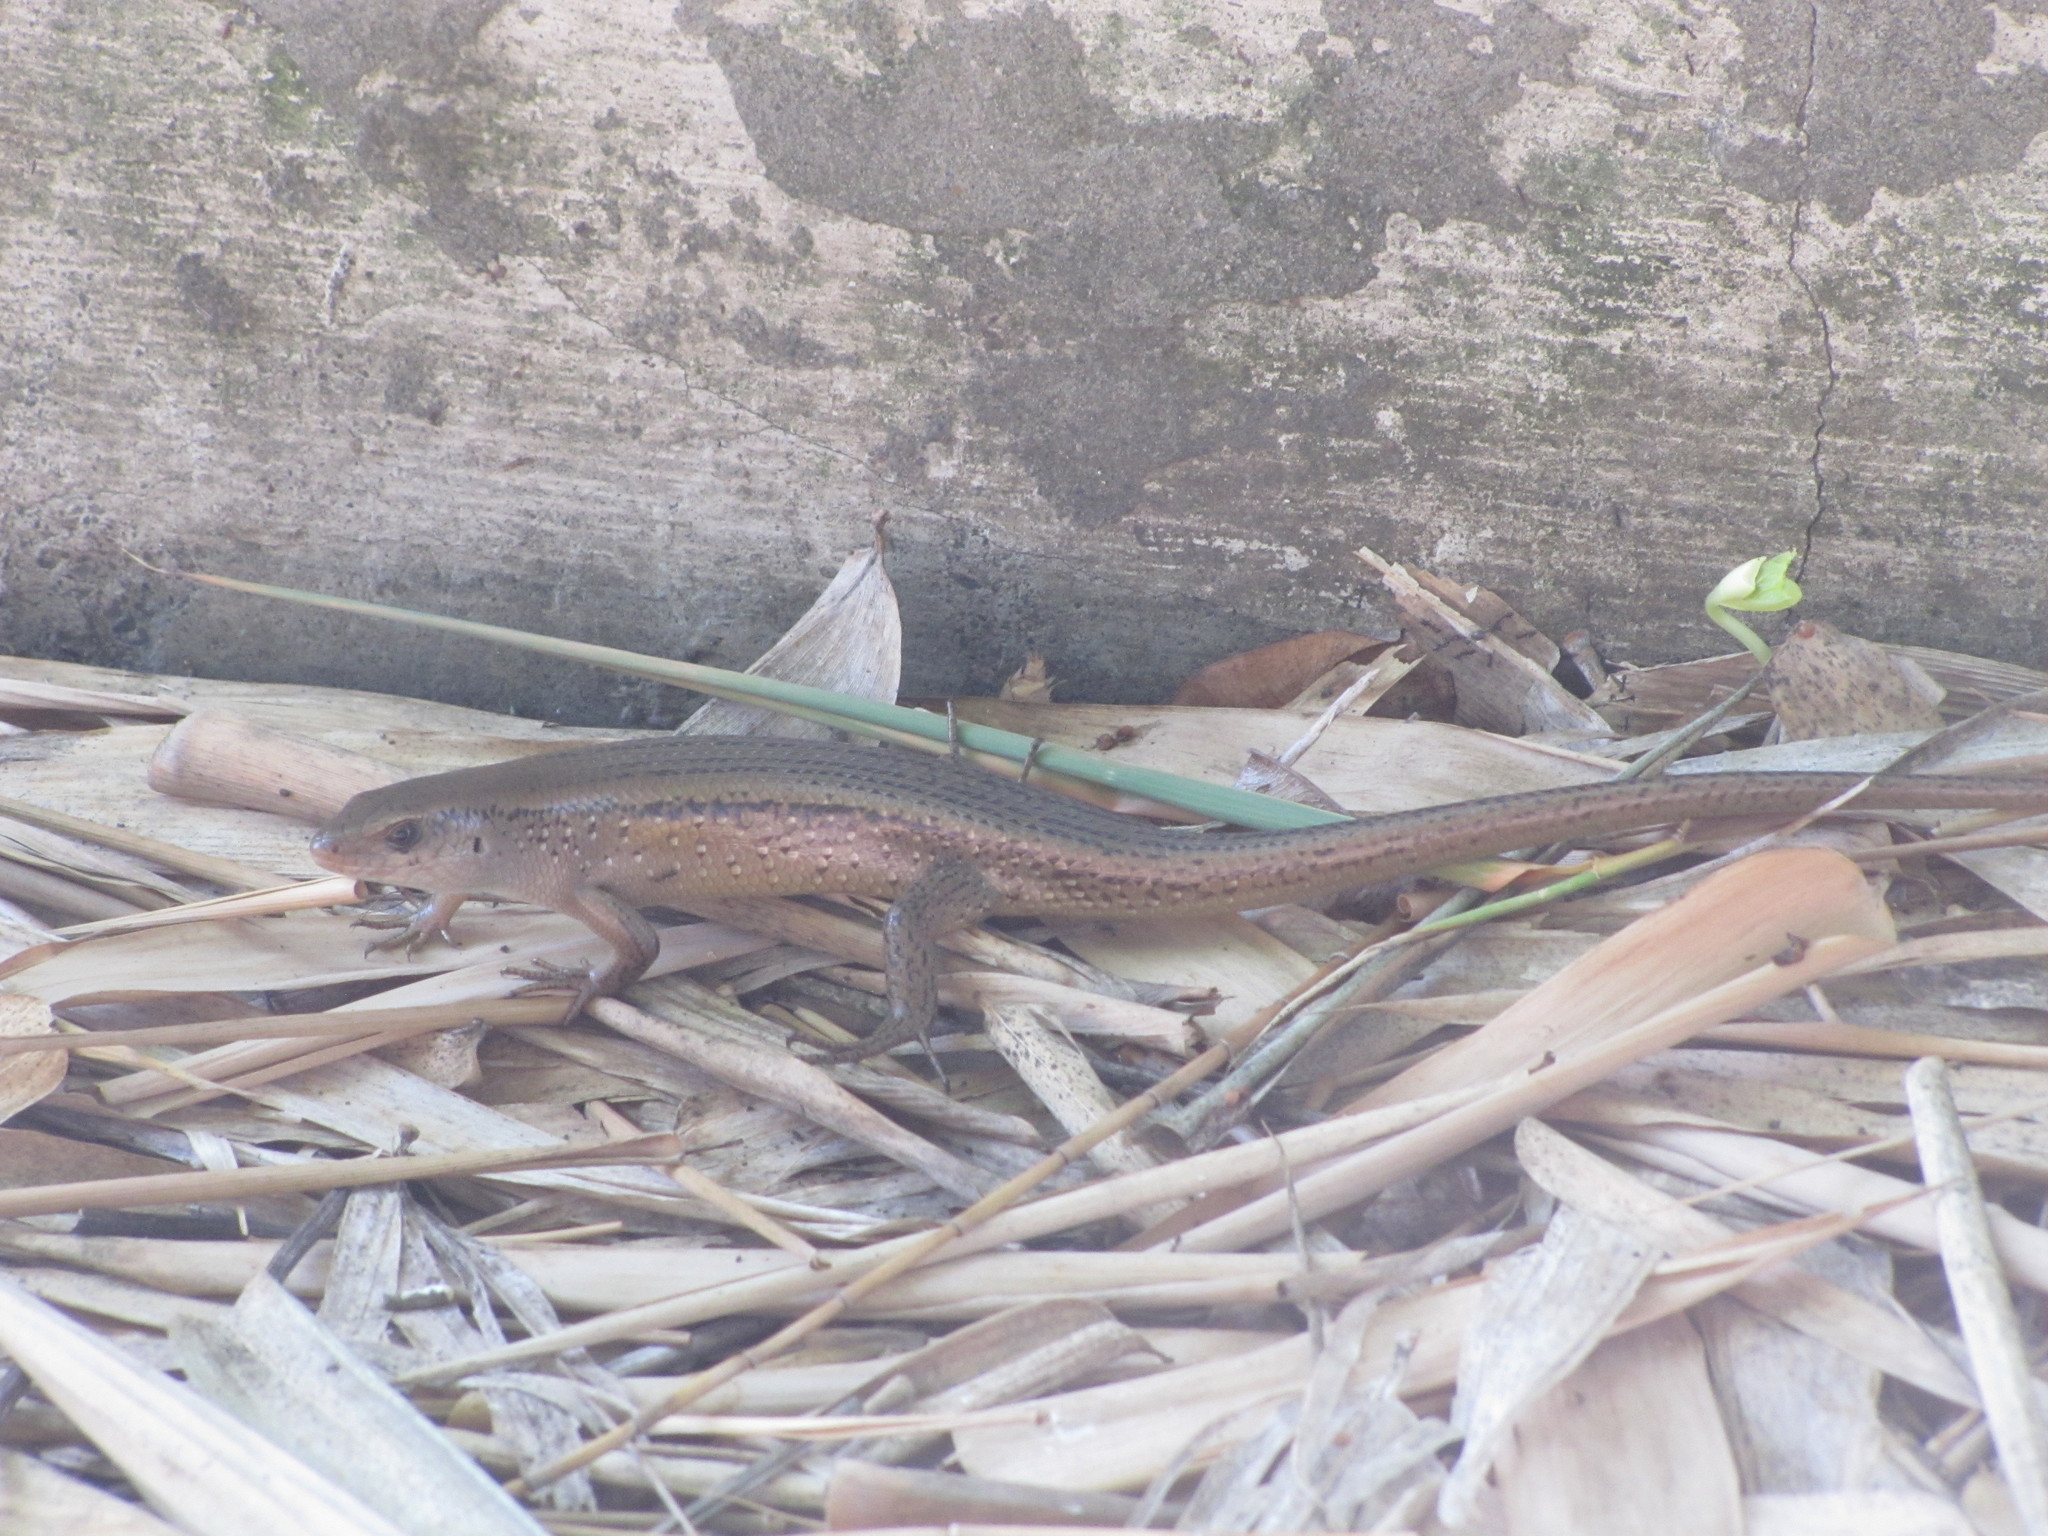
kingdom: Animalia
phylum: Chordata
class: Squamata
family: Scincidae
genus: Eutropis
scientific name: Eutropis multifasciata
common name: Common mabuya
